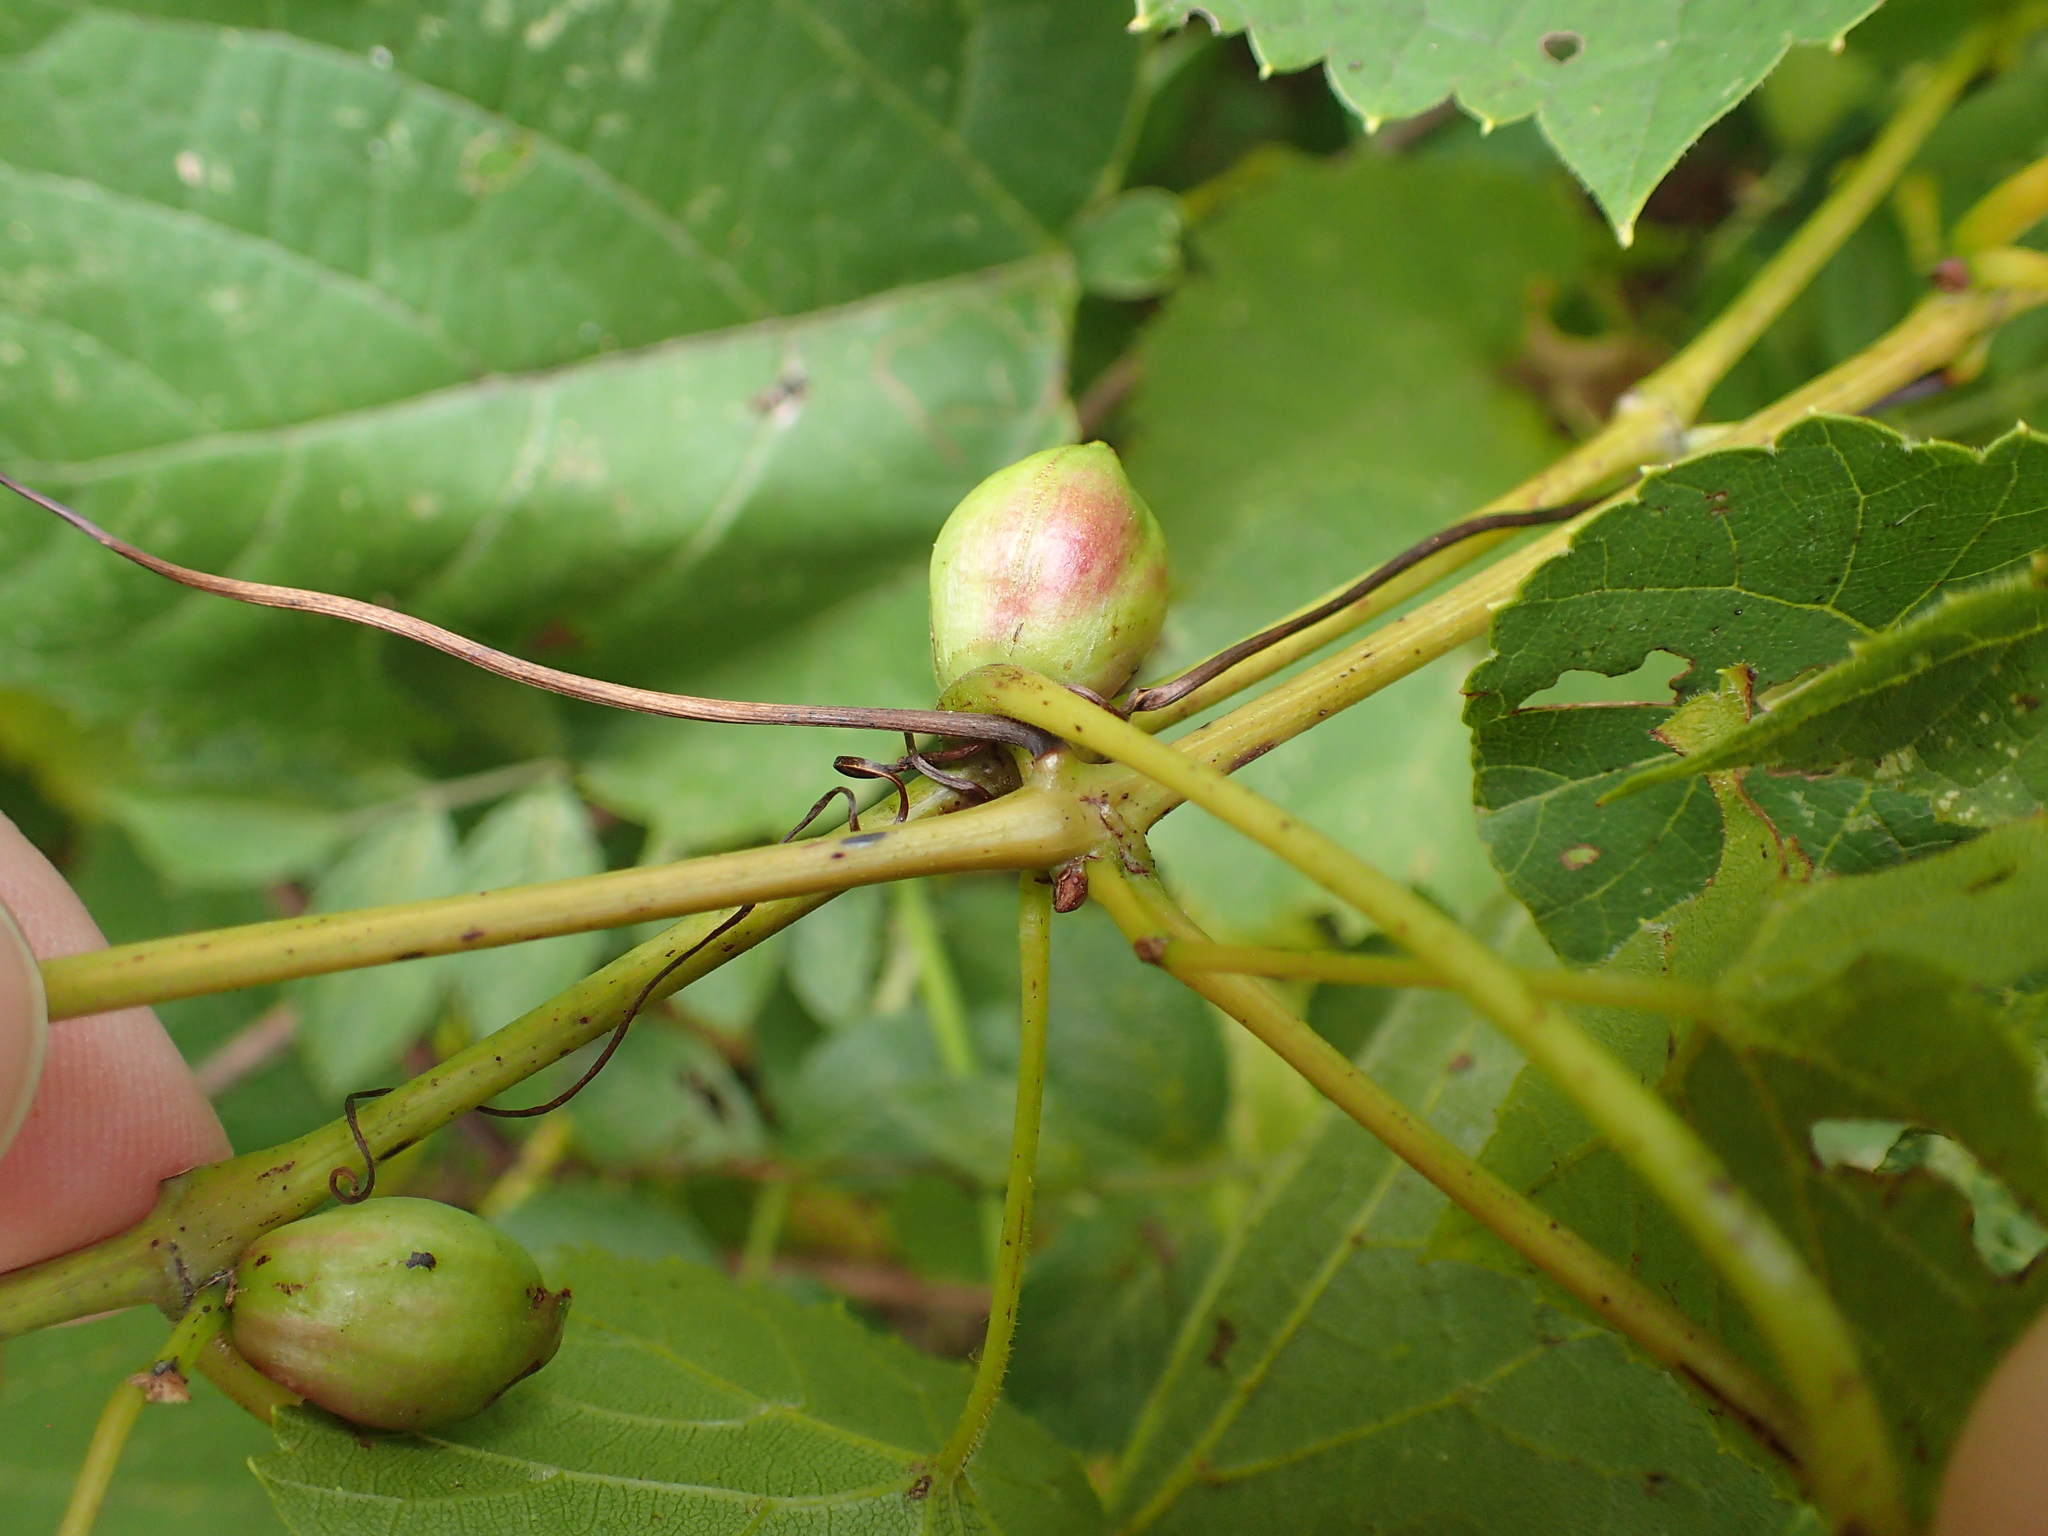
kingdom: Animalia
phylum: Arthropoda
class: Insecta
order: Diptera
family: Cecidomyiidae
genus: Ampelomyia
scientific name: Ampelomyia vitispomum
